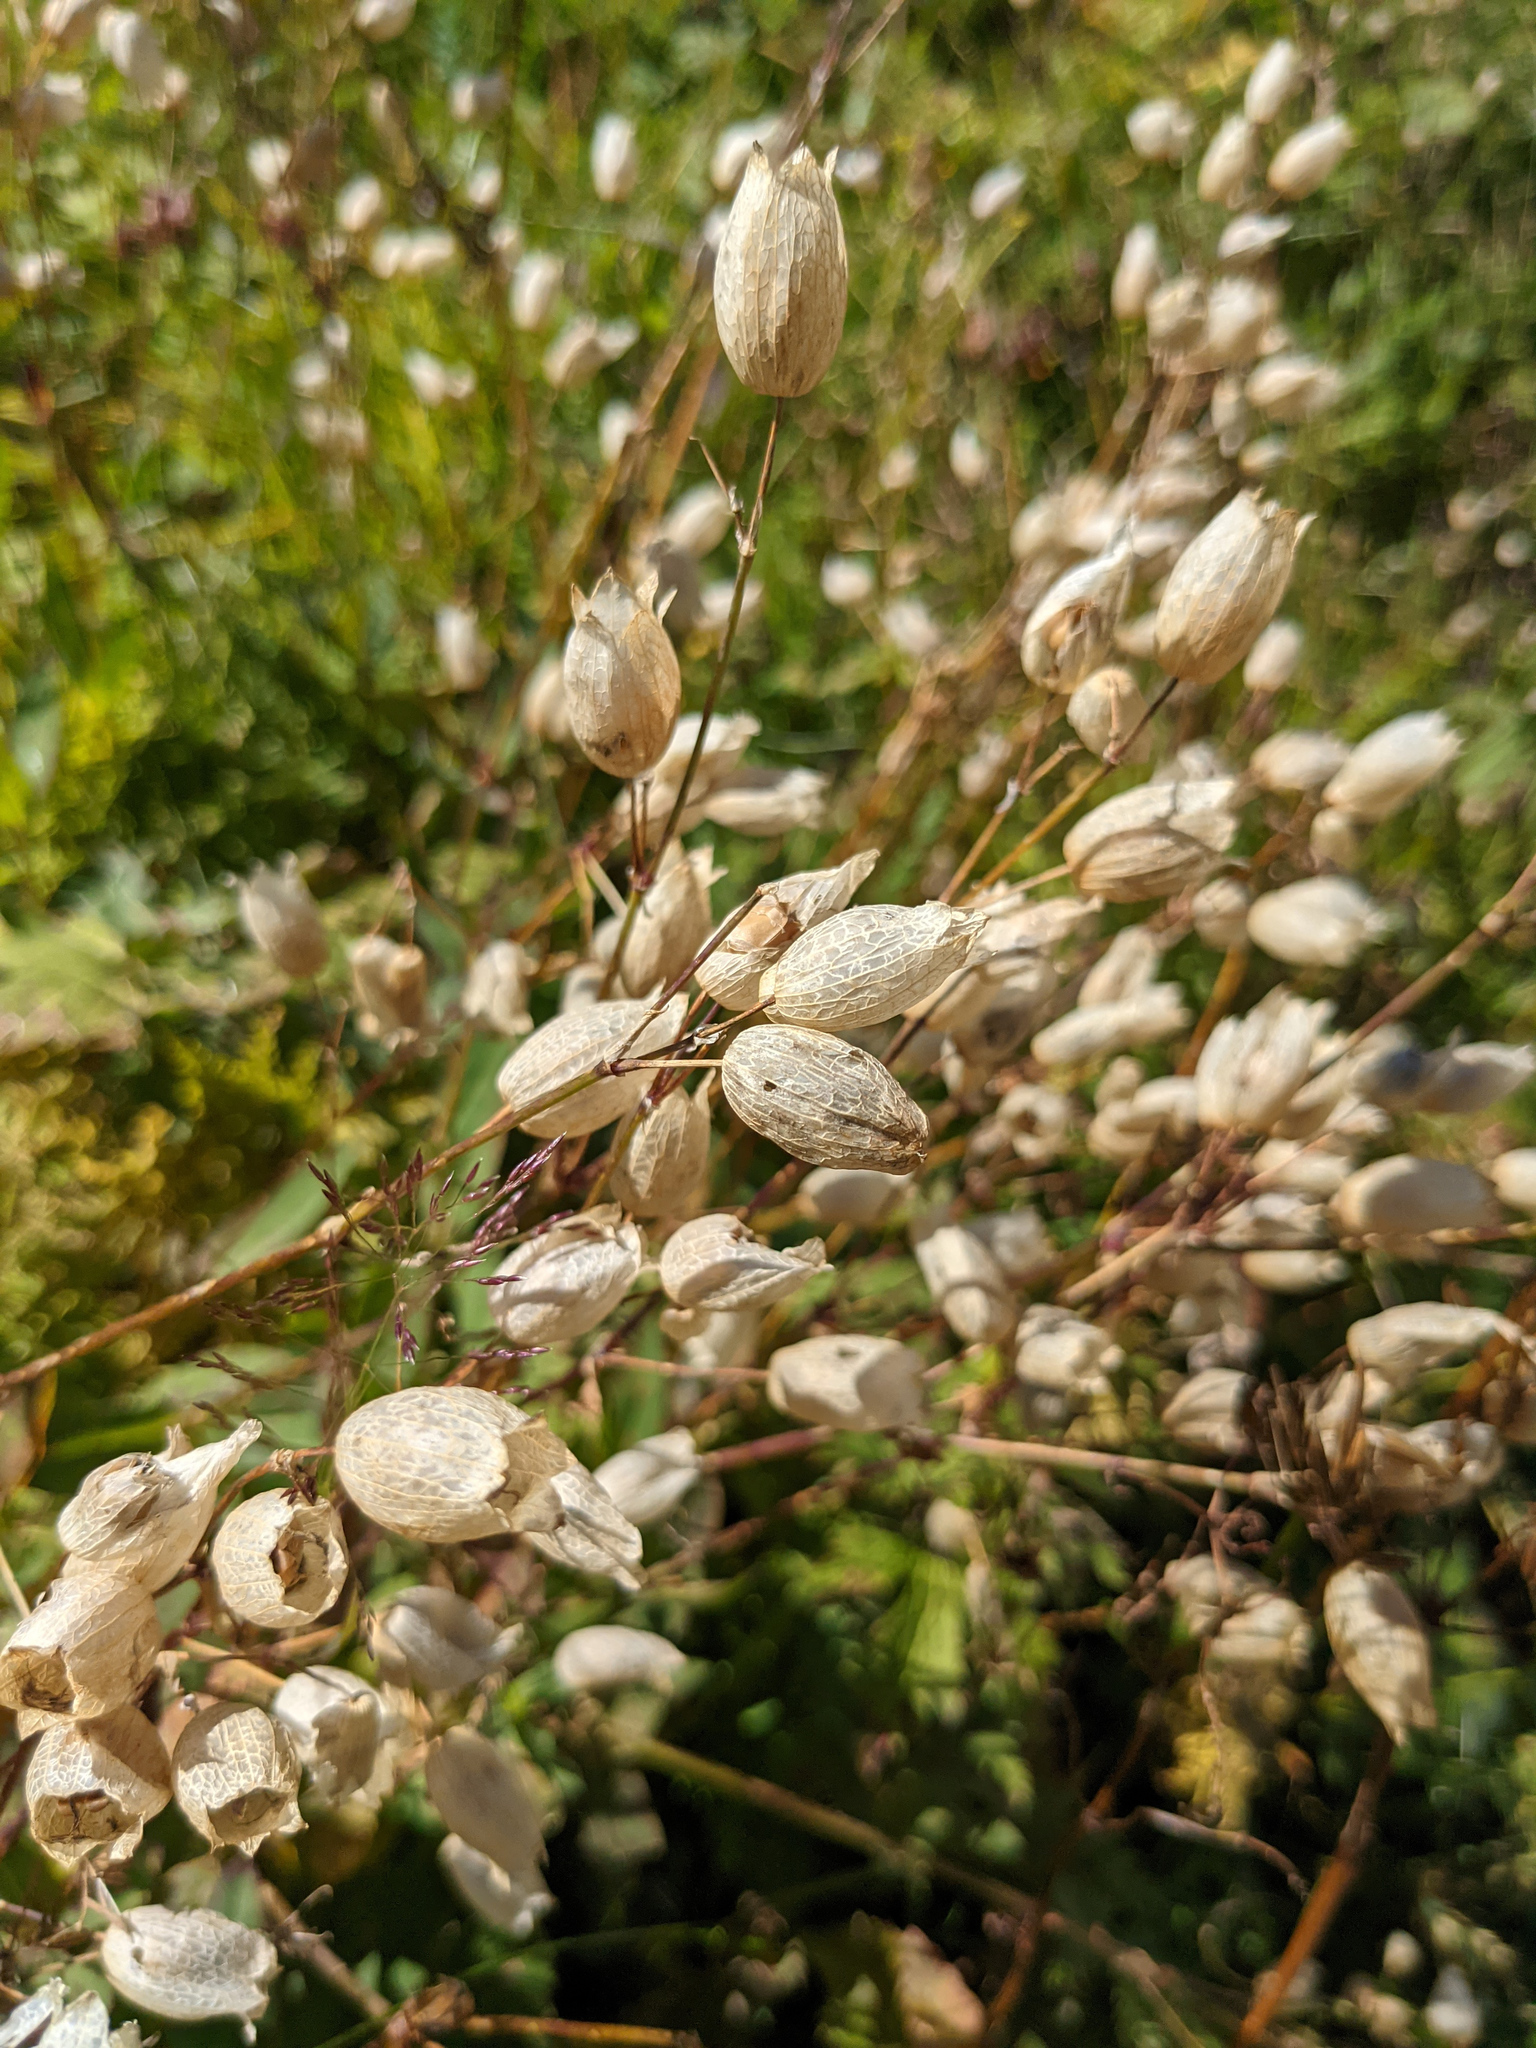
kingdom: Plantae
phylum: Tracheophyta
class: Magnoliopsida
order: Caryophyllales
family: Caryophyllaceae
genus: Silene
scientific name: Silene vulgaris
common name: Bladder campion
